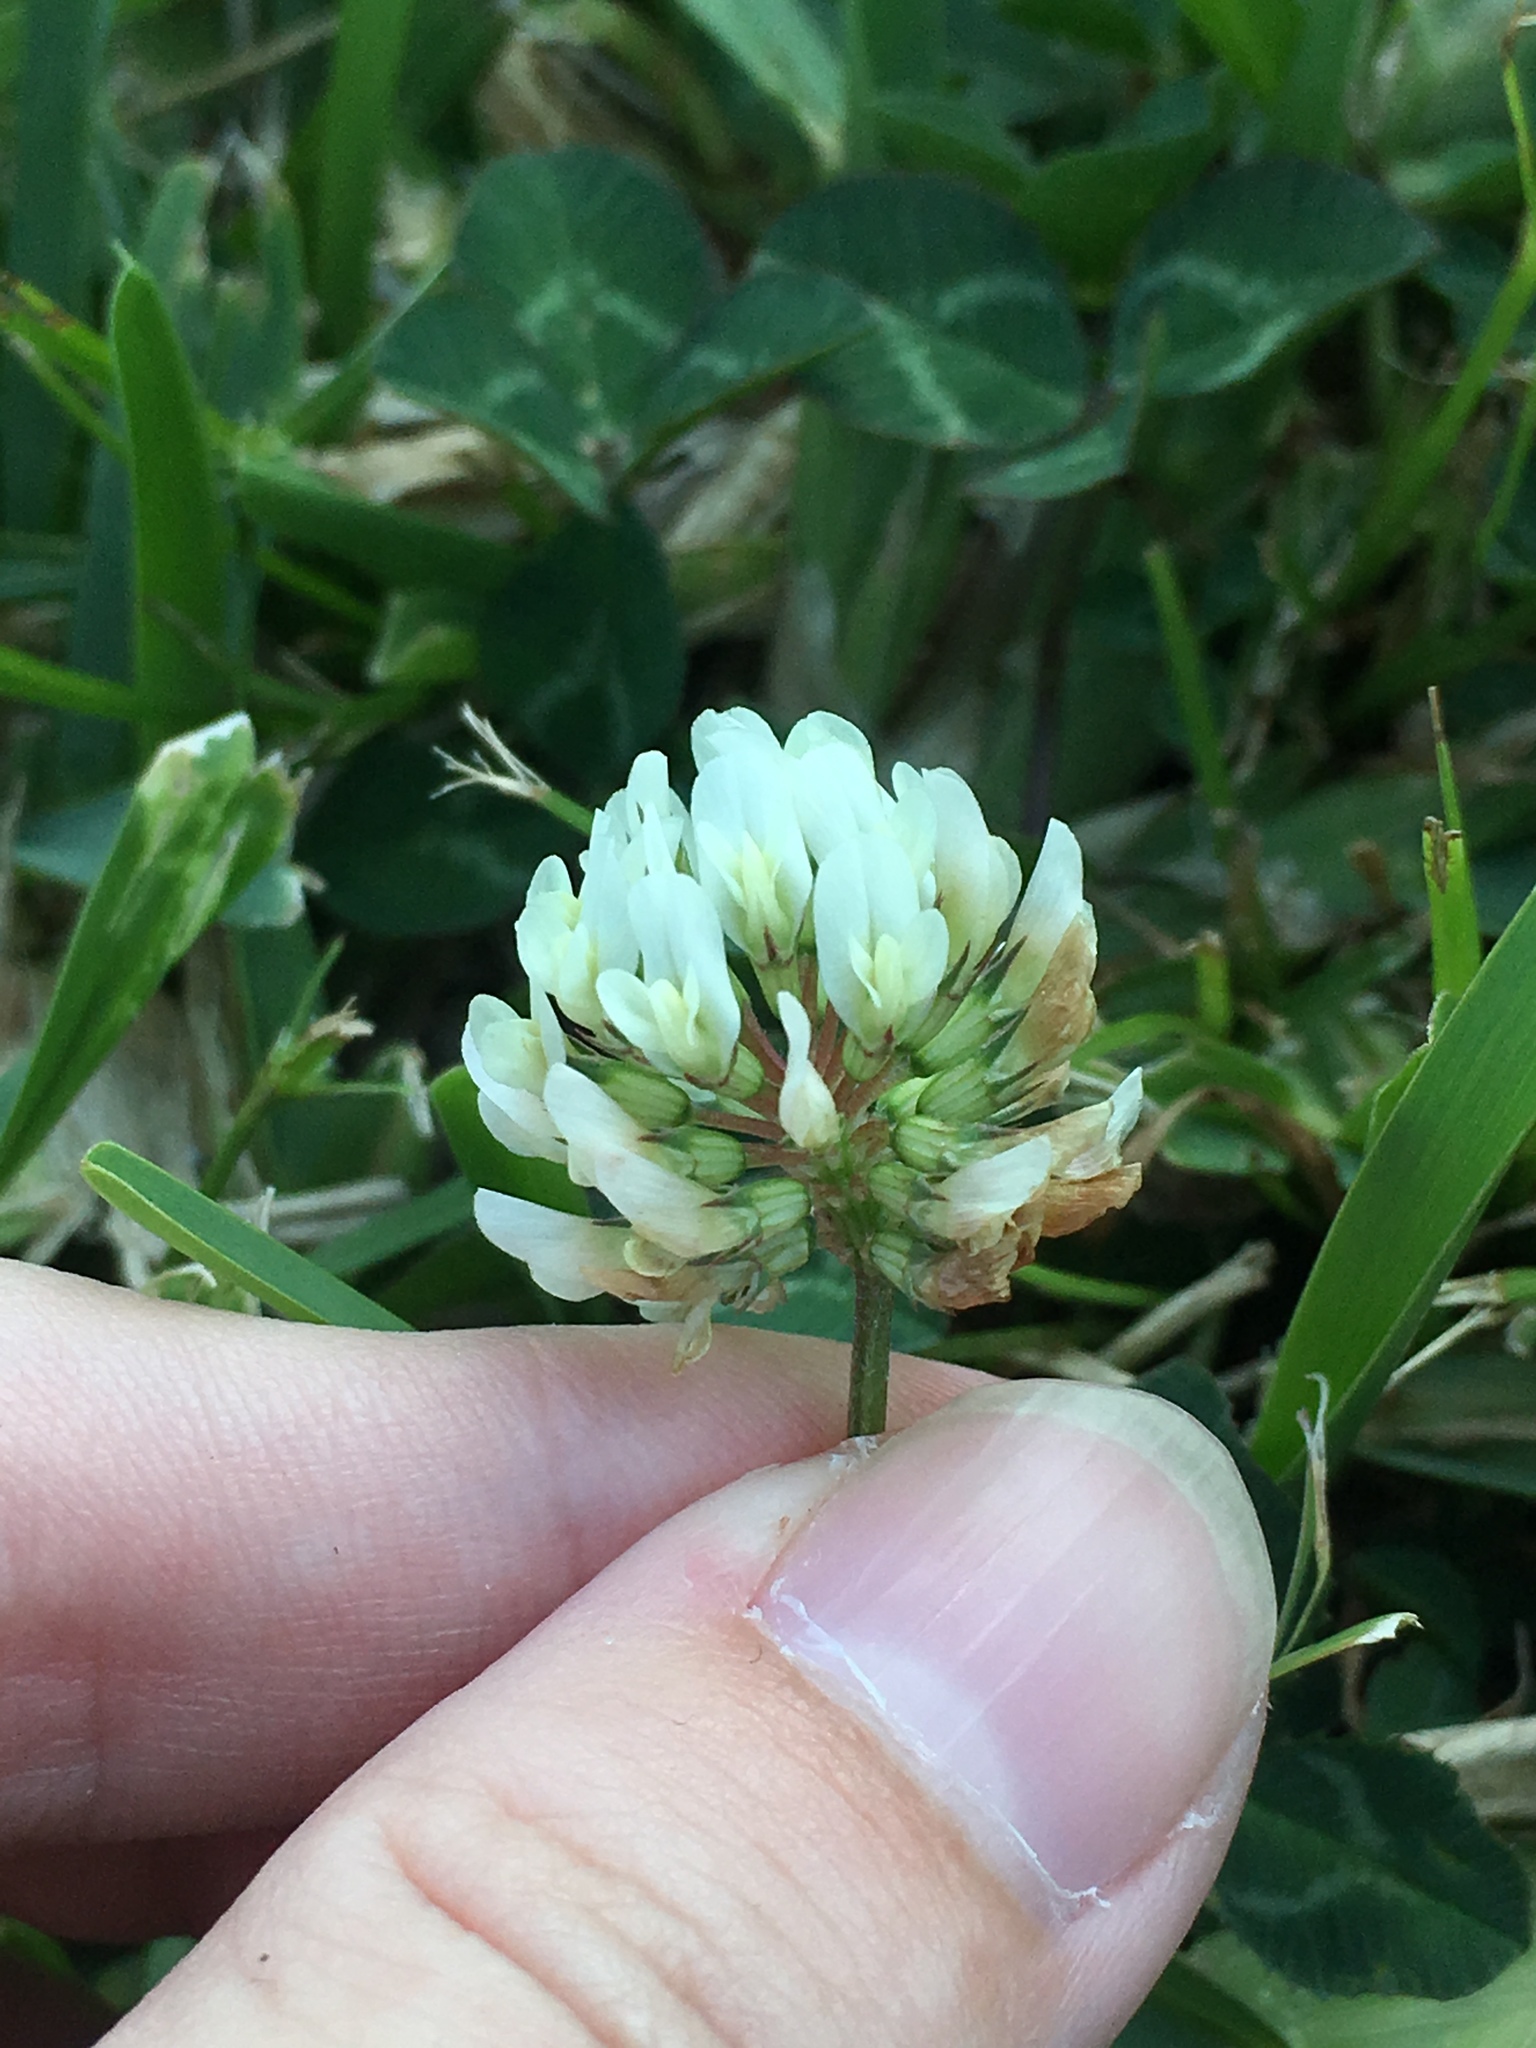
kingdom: Plantae
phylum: Tracheophyta
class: Magnoliopsida
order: Fabales
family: Fabaceae
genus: Trifolium
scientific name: Trifolium repens
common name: White clover
